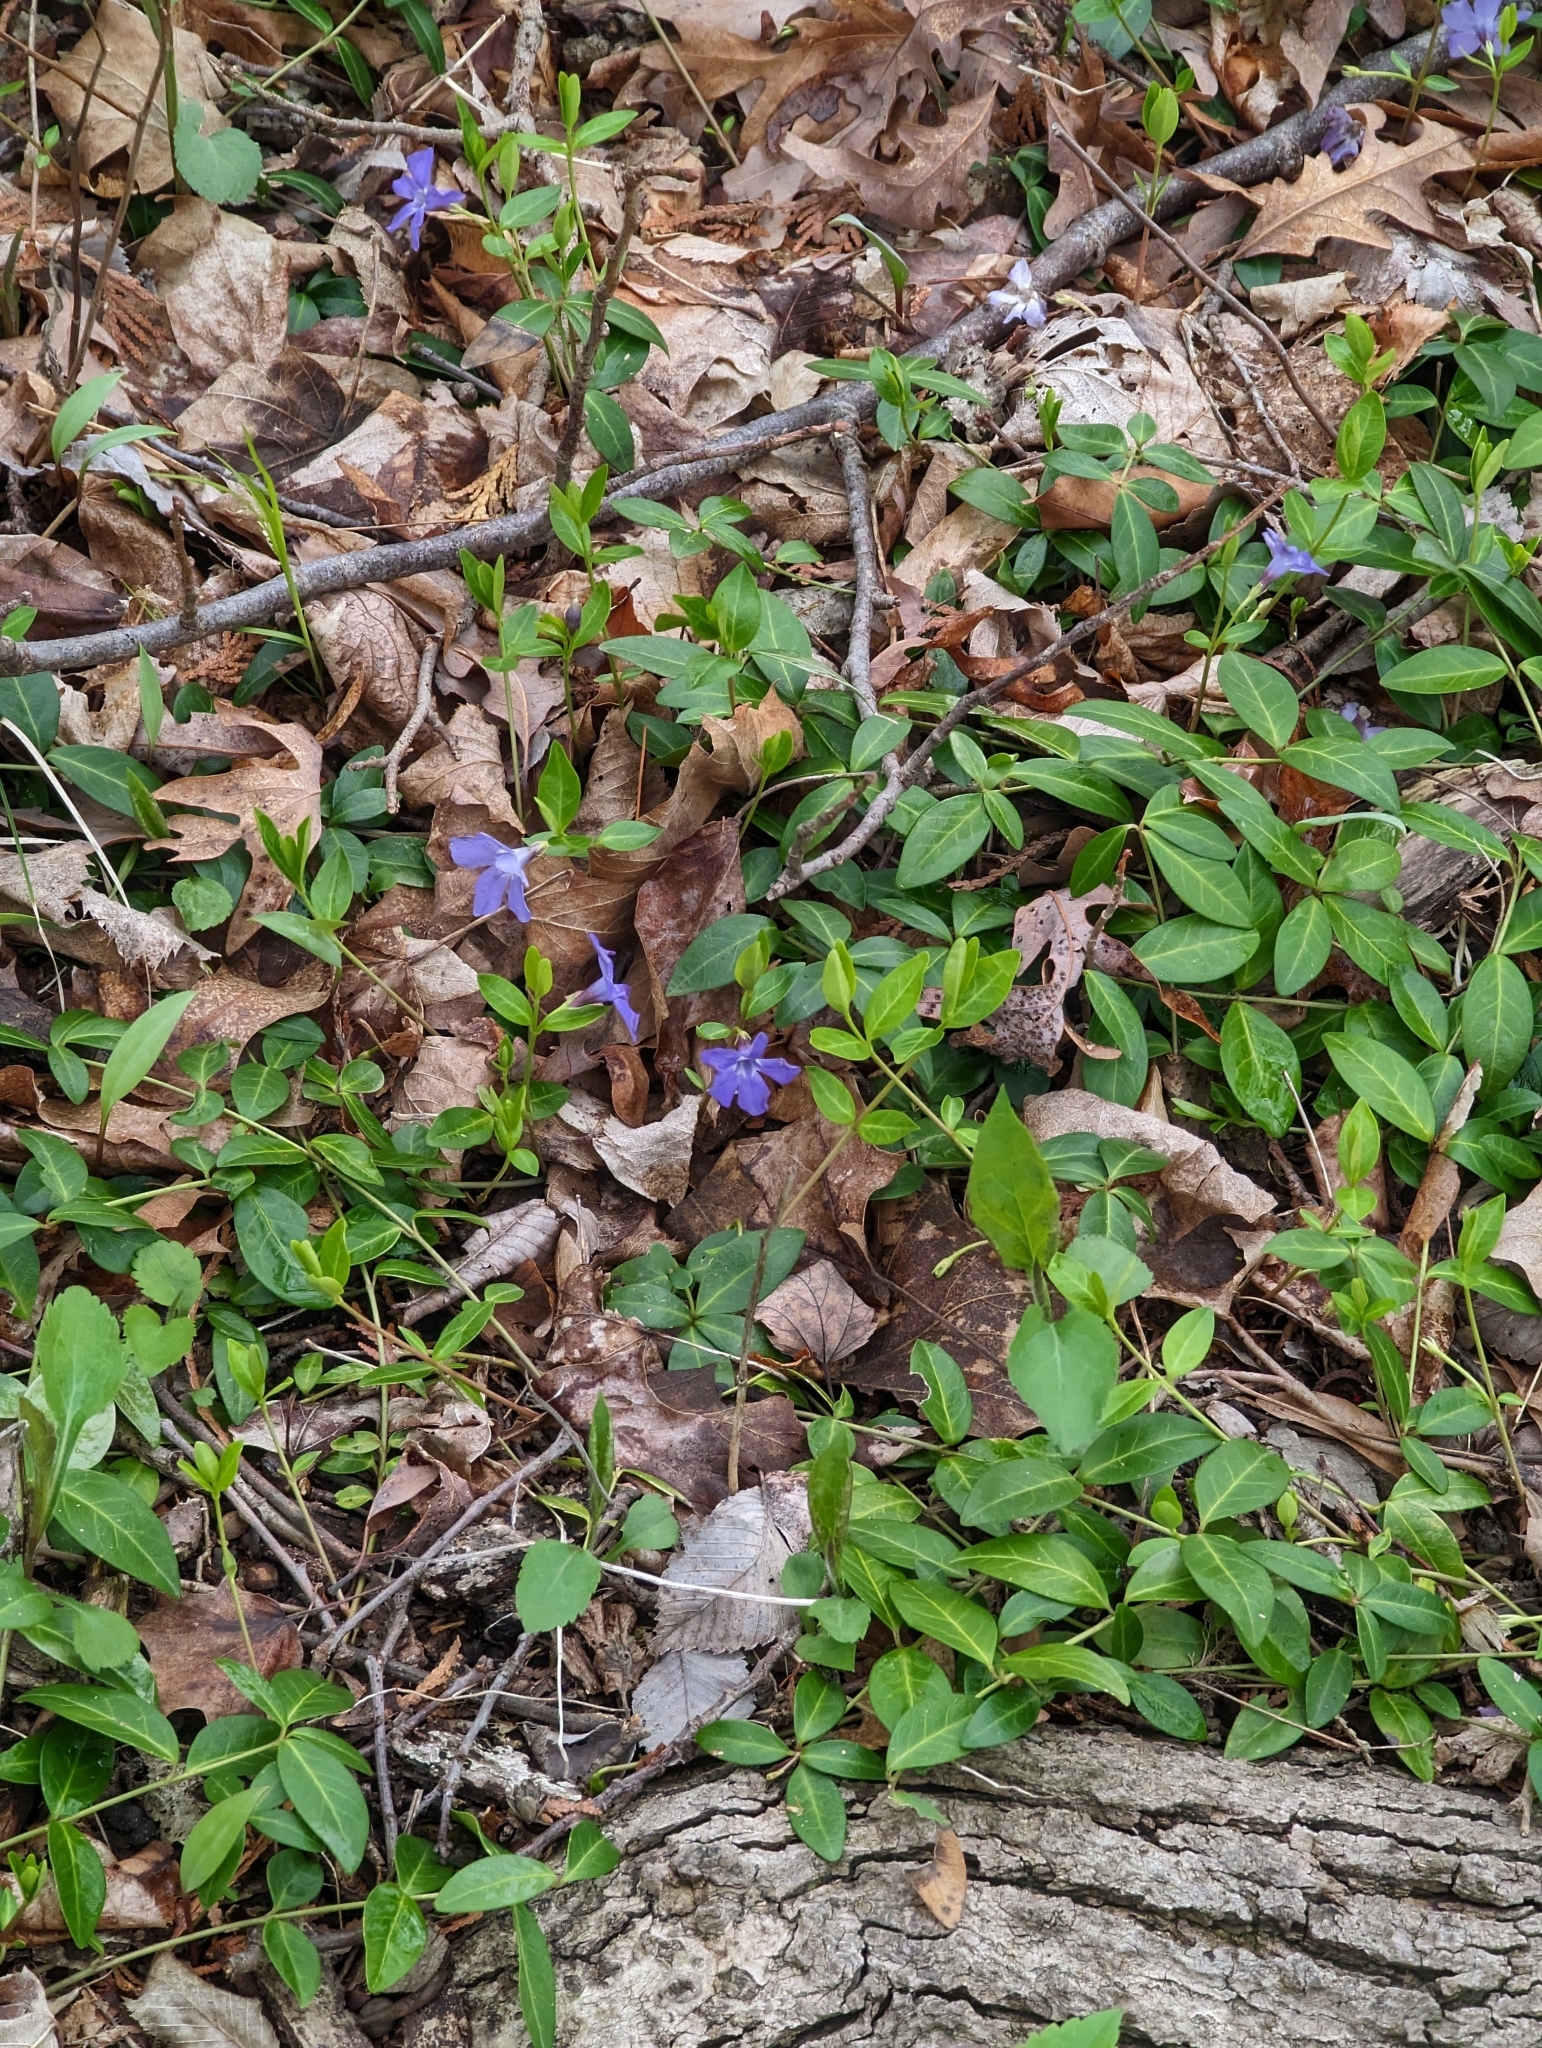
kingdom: Plantae
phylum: Tracheophyta
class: Magnoliopsida
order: Gentianales
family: Apocynaceae
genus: Vinca
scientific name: Vinca minor
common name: Lesser periwinkle
